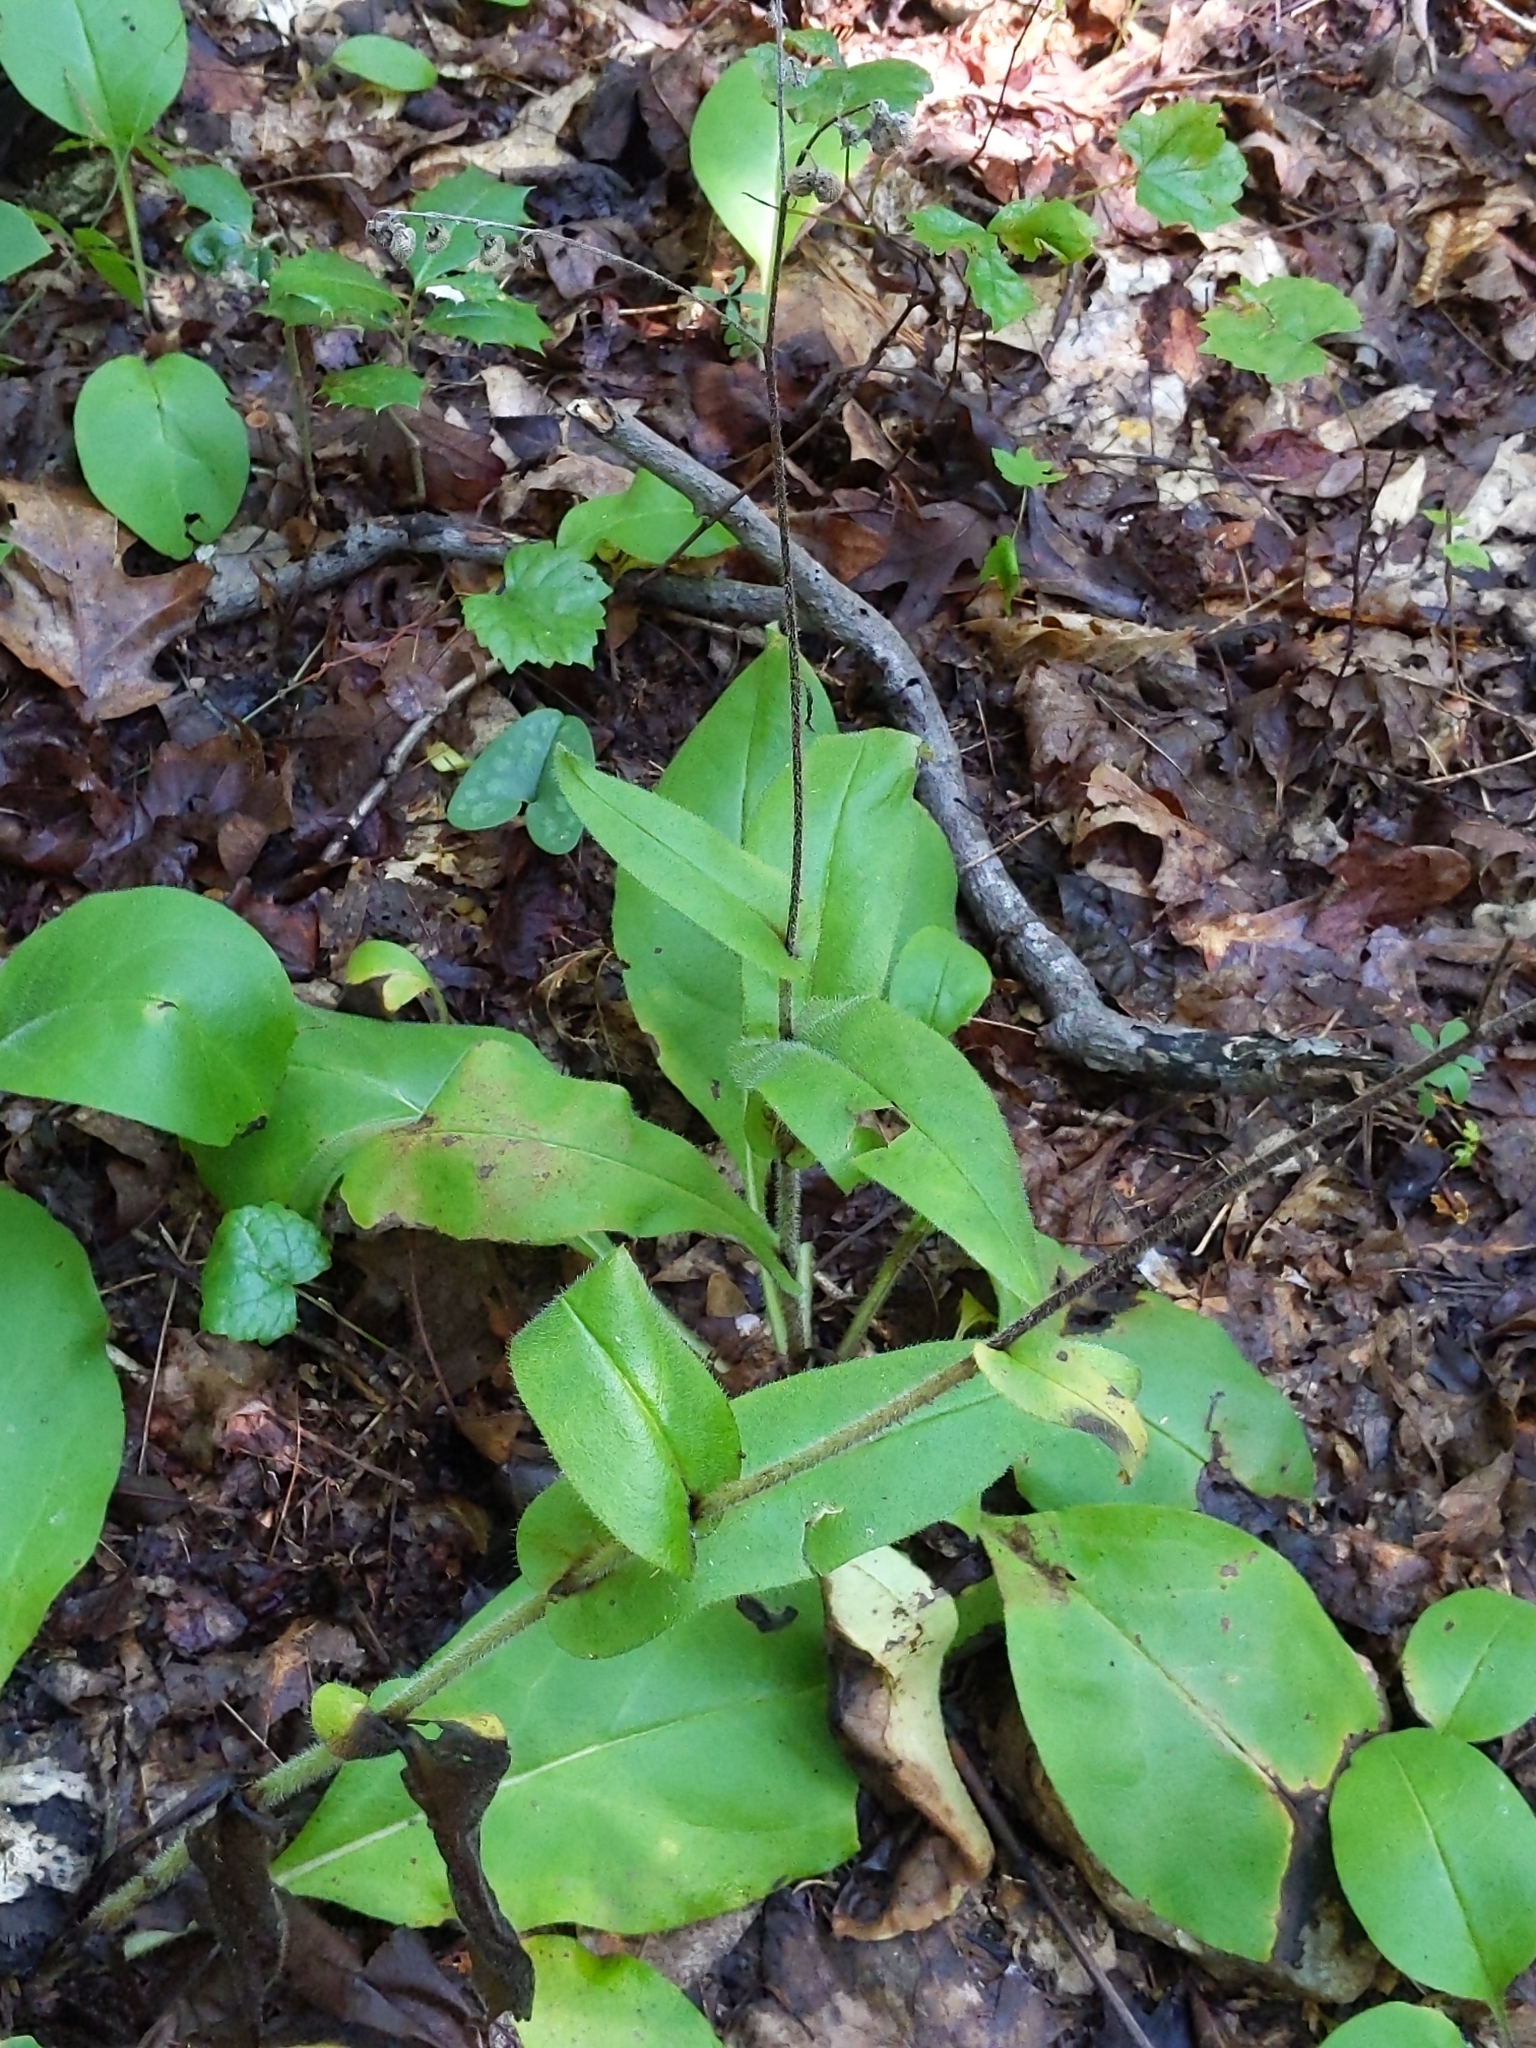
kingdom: Plantae
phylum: Tracheophyta
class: Magnoliopsida
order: Boraginales
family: Boraginaceae
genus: Andersonglossum
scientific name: Andersonglossum virginianum
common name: Wild comfrey
